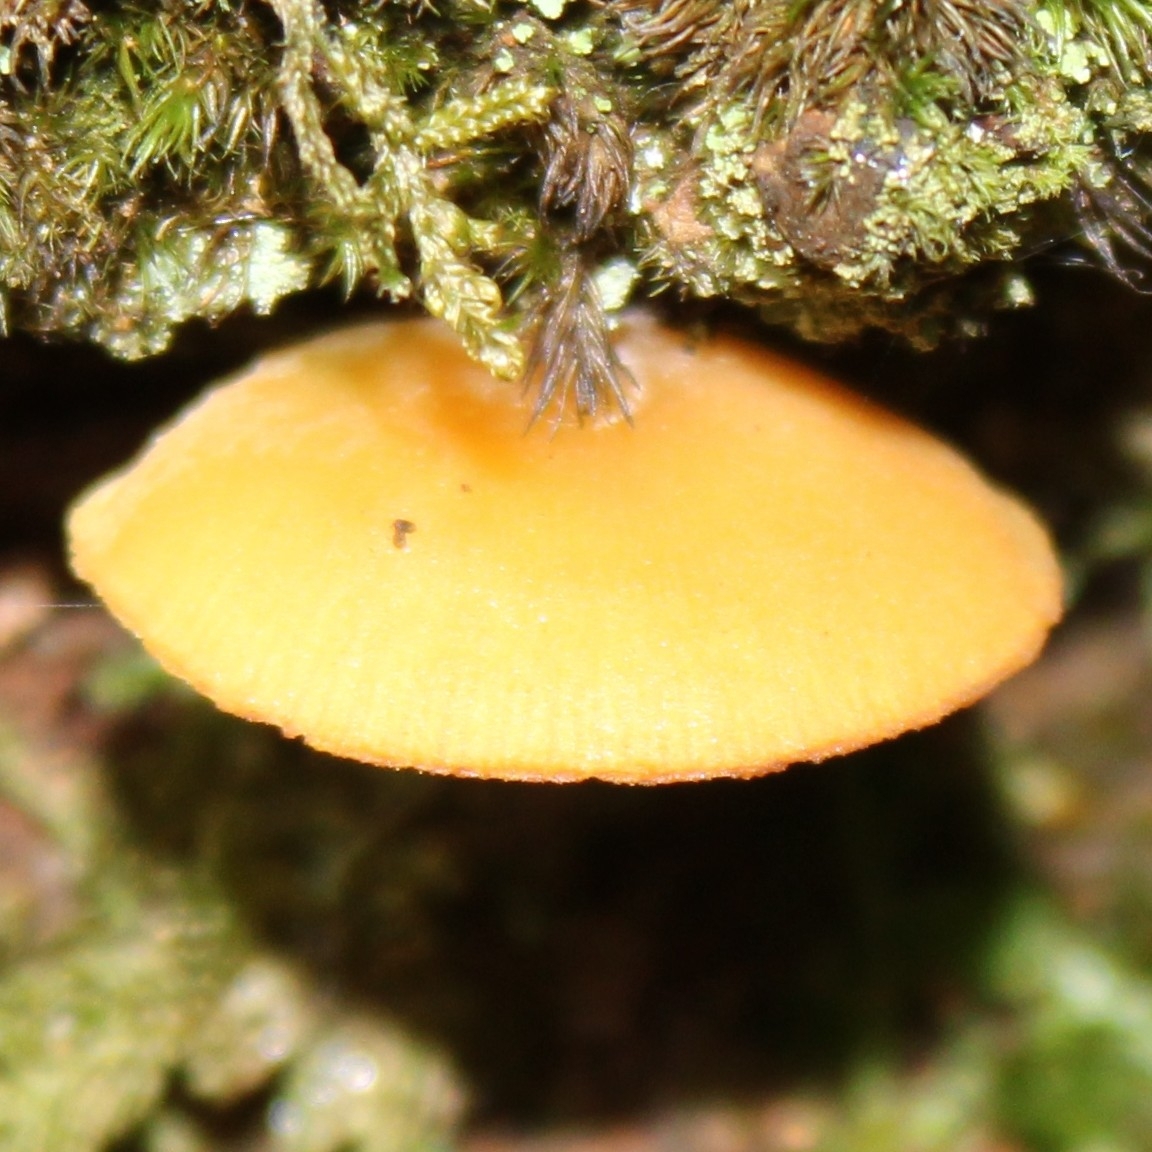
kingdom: Fungi
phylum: Basidiomycota
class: Agaricomycetes
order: Agaricales
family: Hymenogastraceae
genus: Galerina
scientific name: Galerina marginata
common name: Funeral bell
